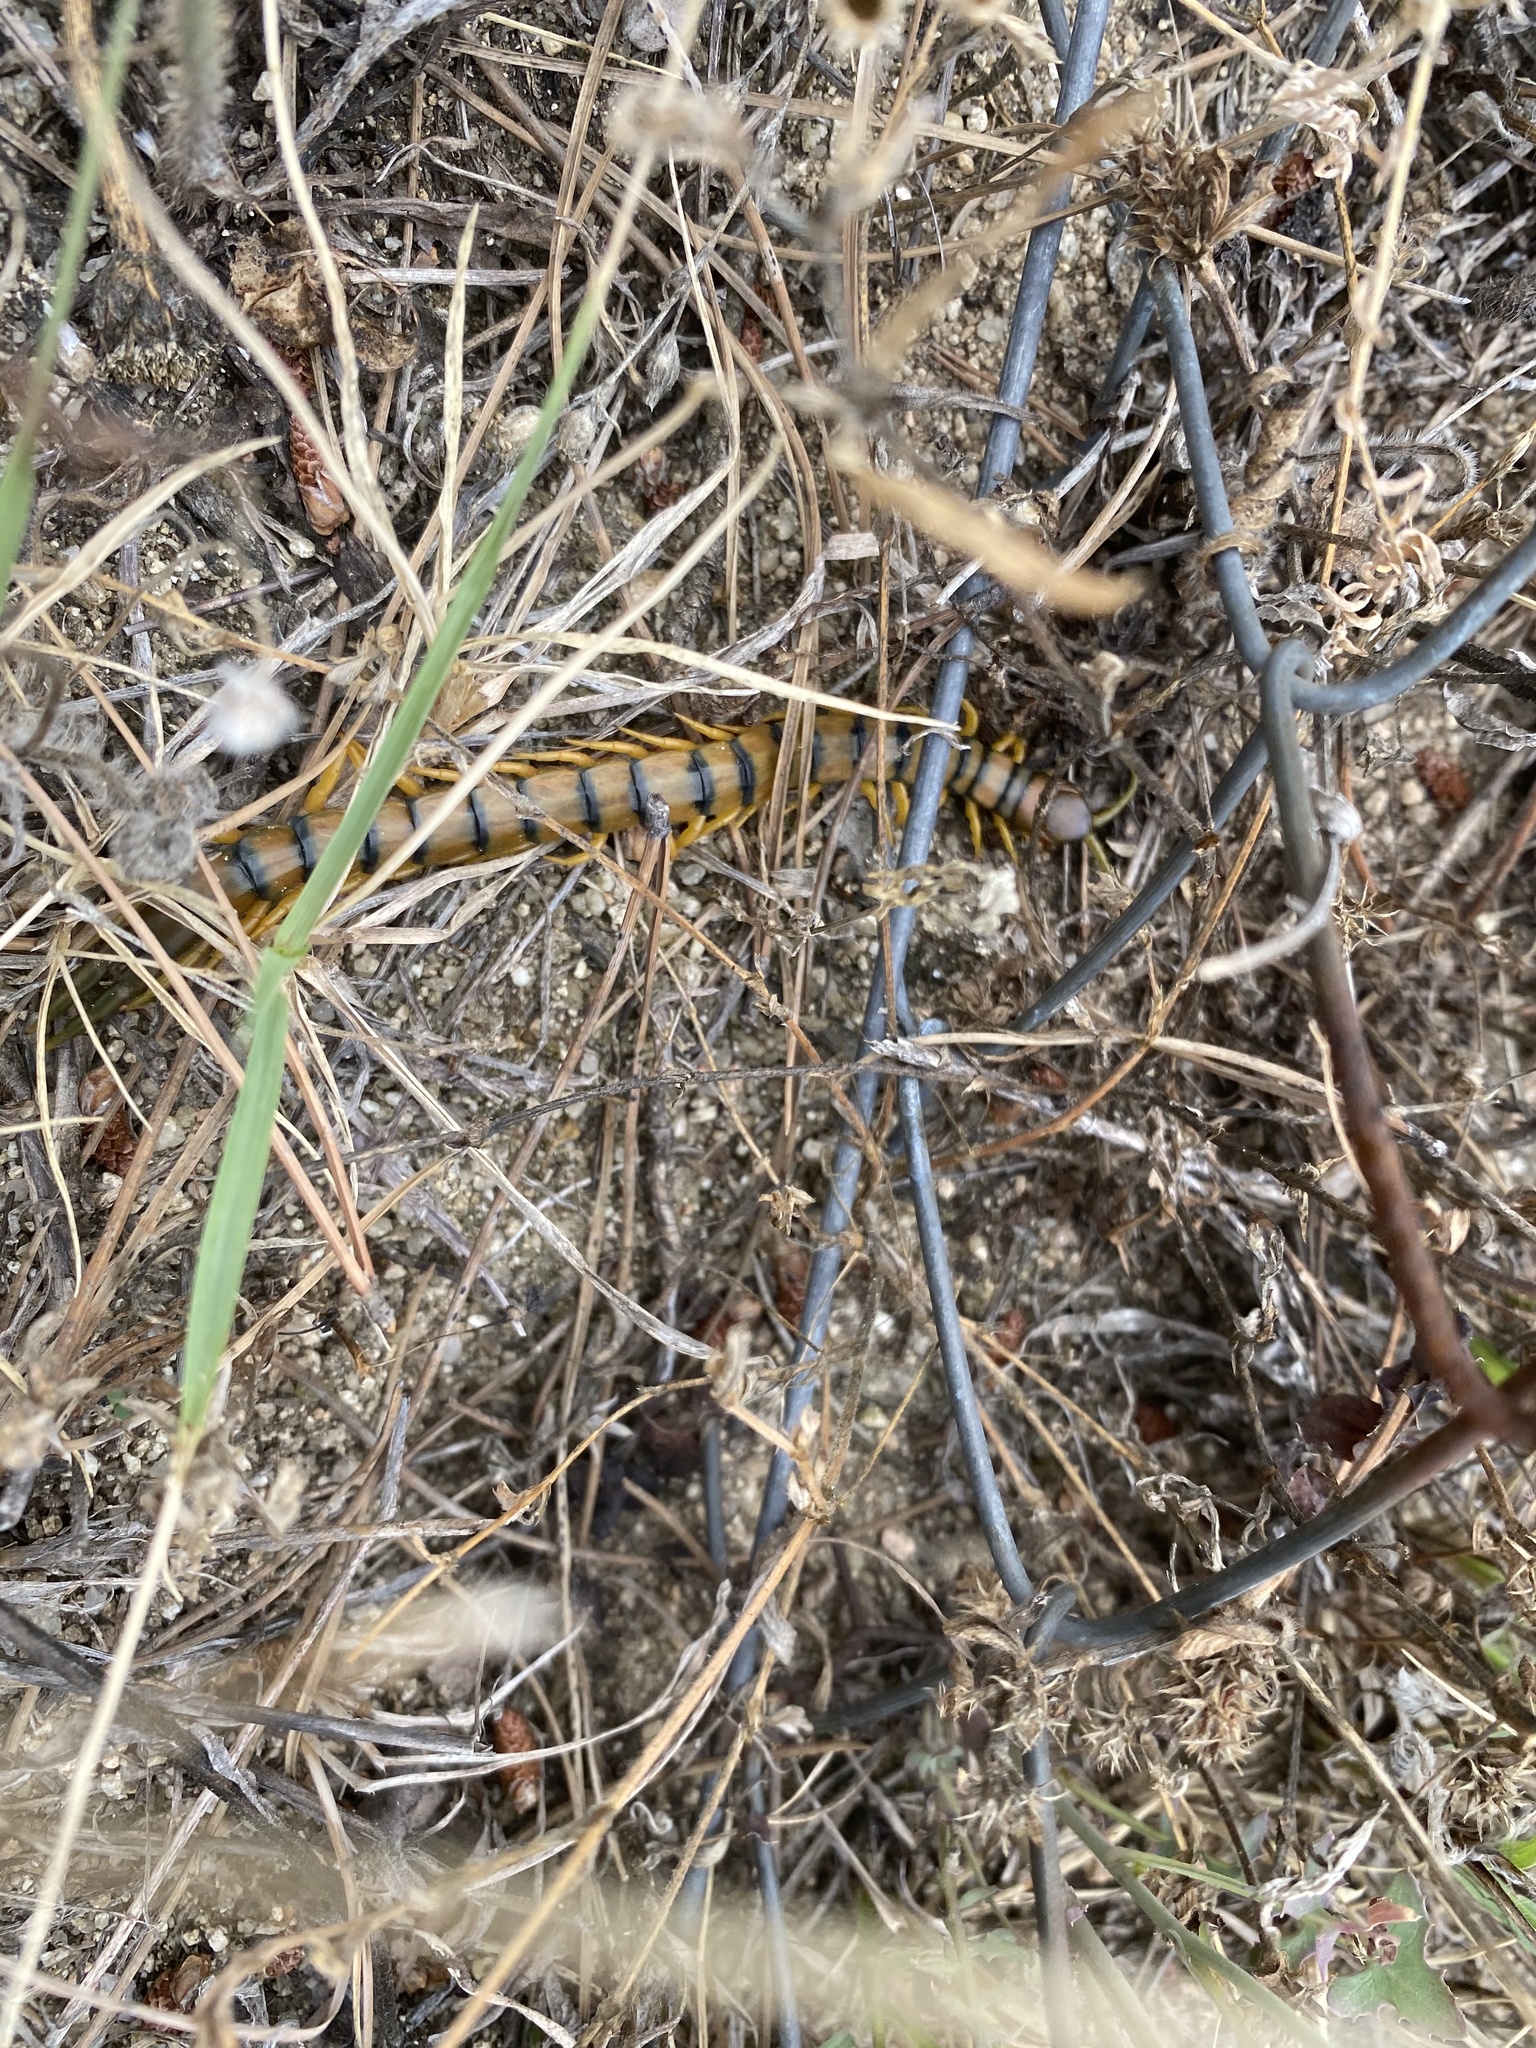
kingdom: Animalia
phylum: Arthropoda
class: Chilopoda
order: Scolopendromorpha
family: Scolopendridae
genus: Scolopendra
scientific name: Scolopendra cingulata
